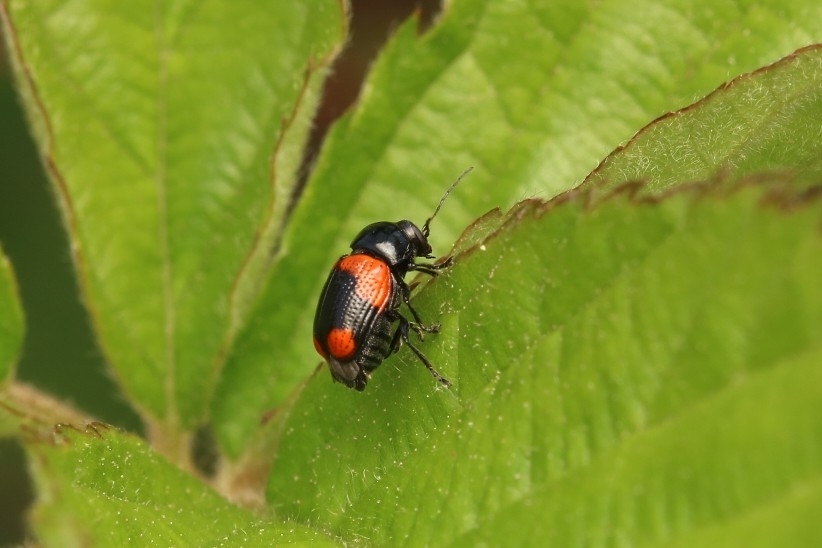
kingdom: Animalia
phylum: Arthropoda
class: Insecta
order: Coleoptera
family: Chrysomelidae
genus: Cryptocephalus
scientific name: Cryptocephalus notatus
